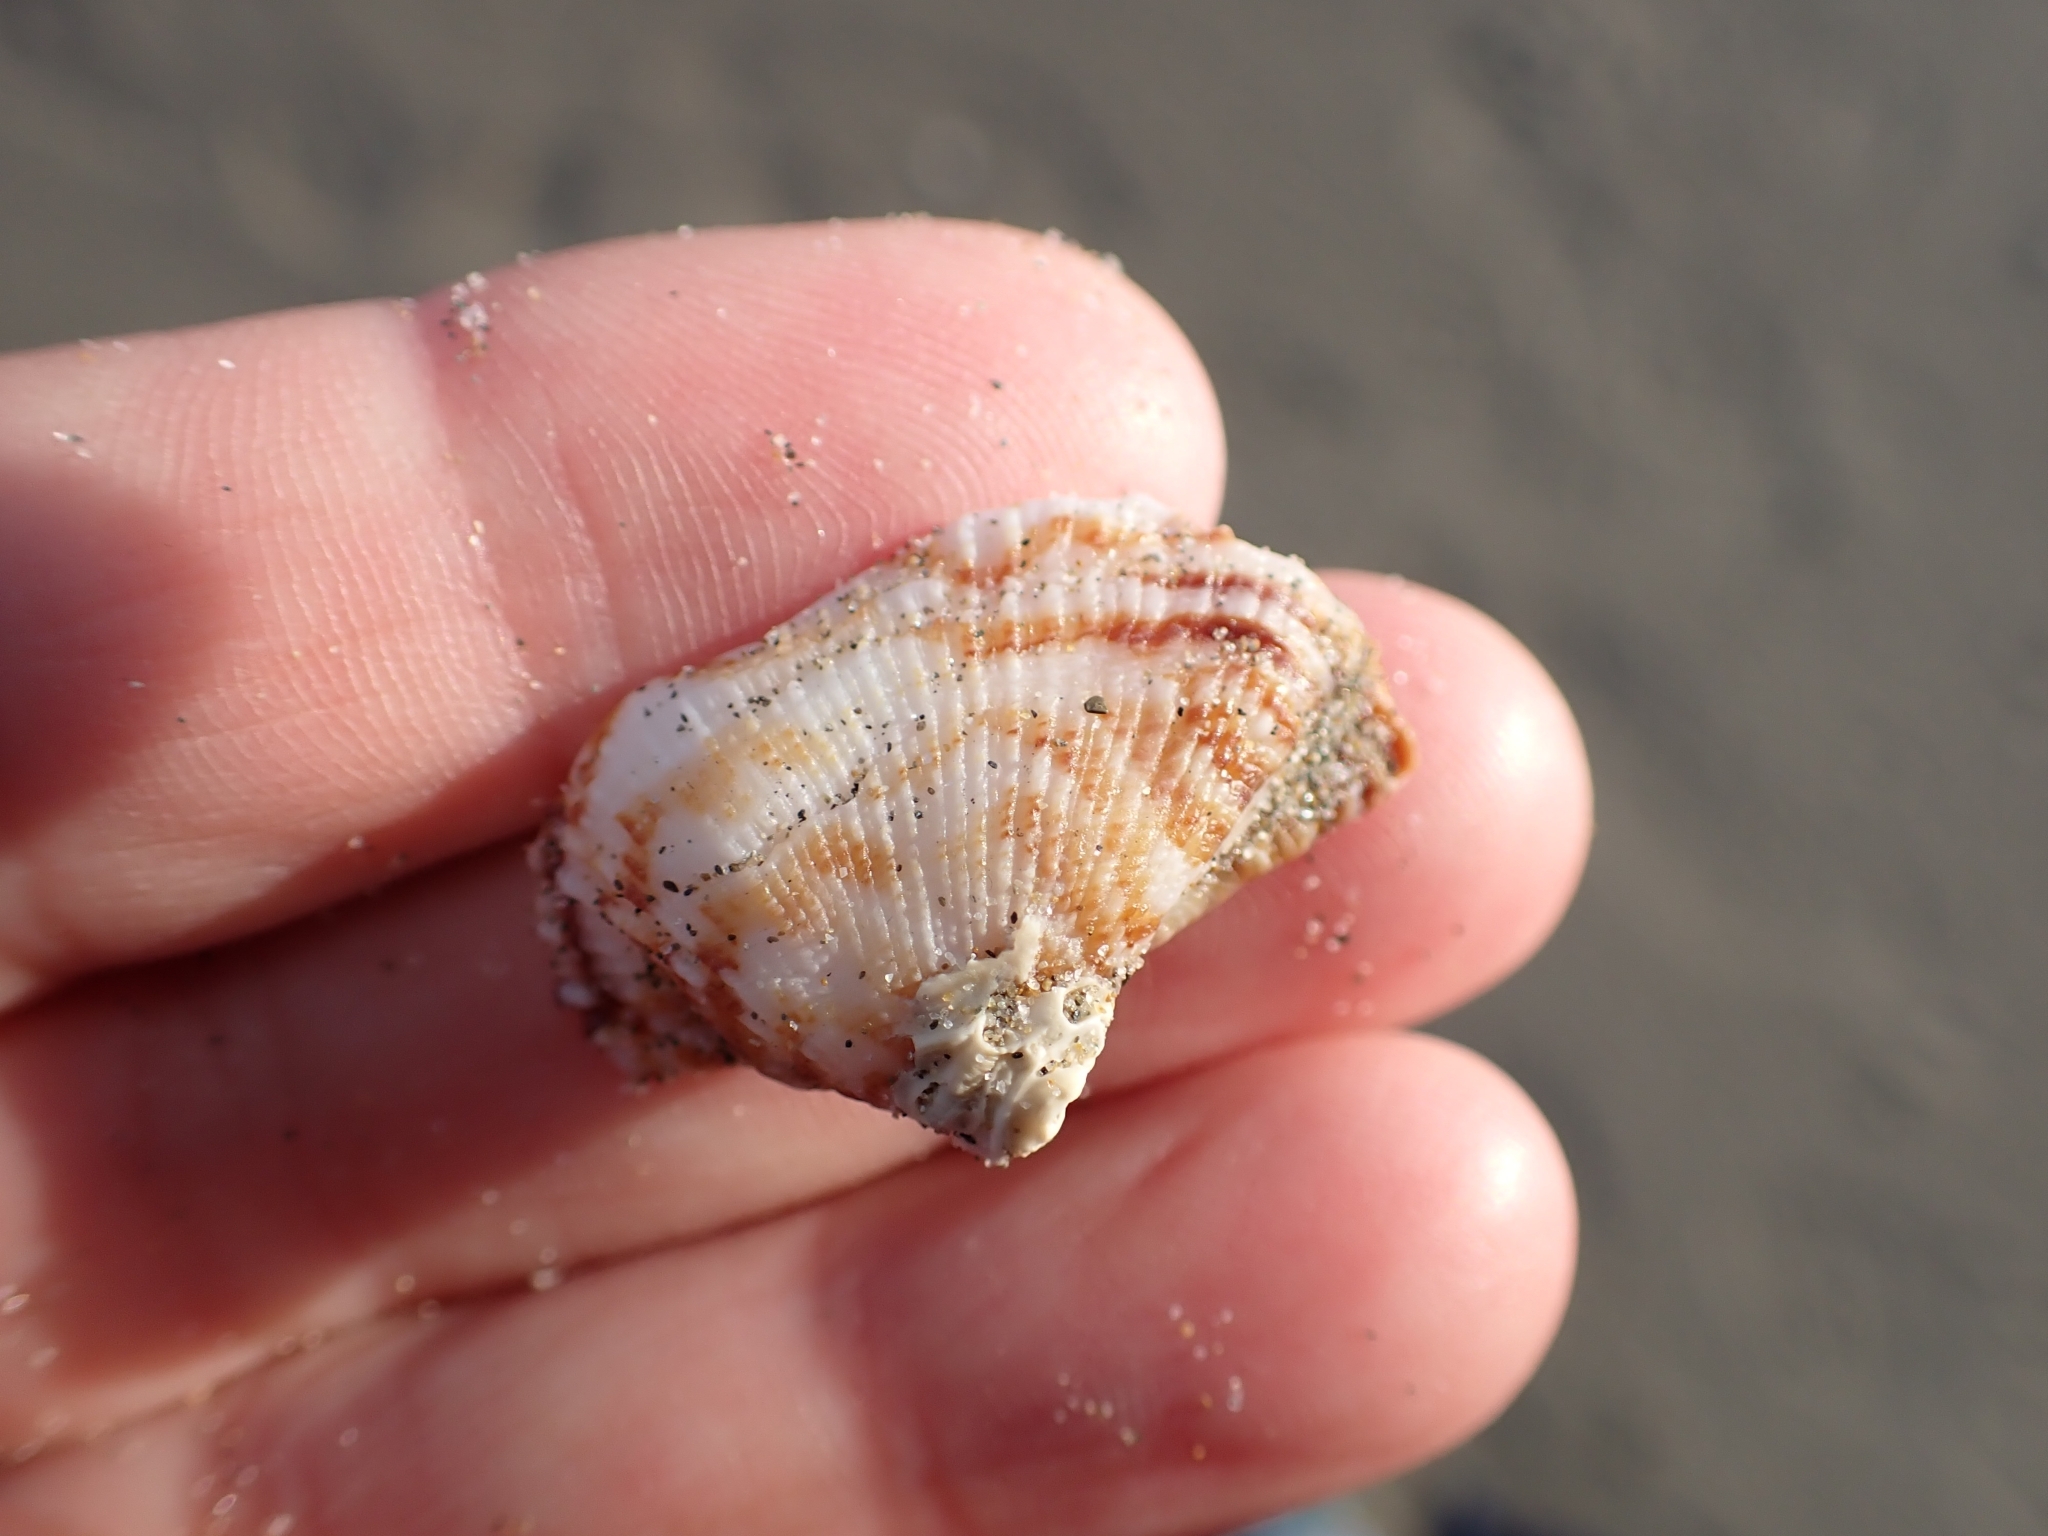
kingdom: Animalia
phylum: Mollusca
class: Bivalvia
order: Arcida
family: Arcidae
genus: Arca
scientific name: Arca noae
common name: Noah's arch
